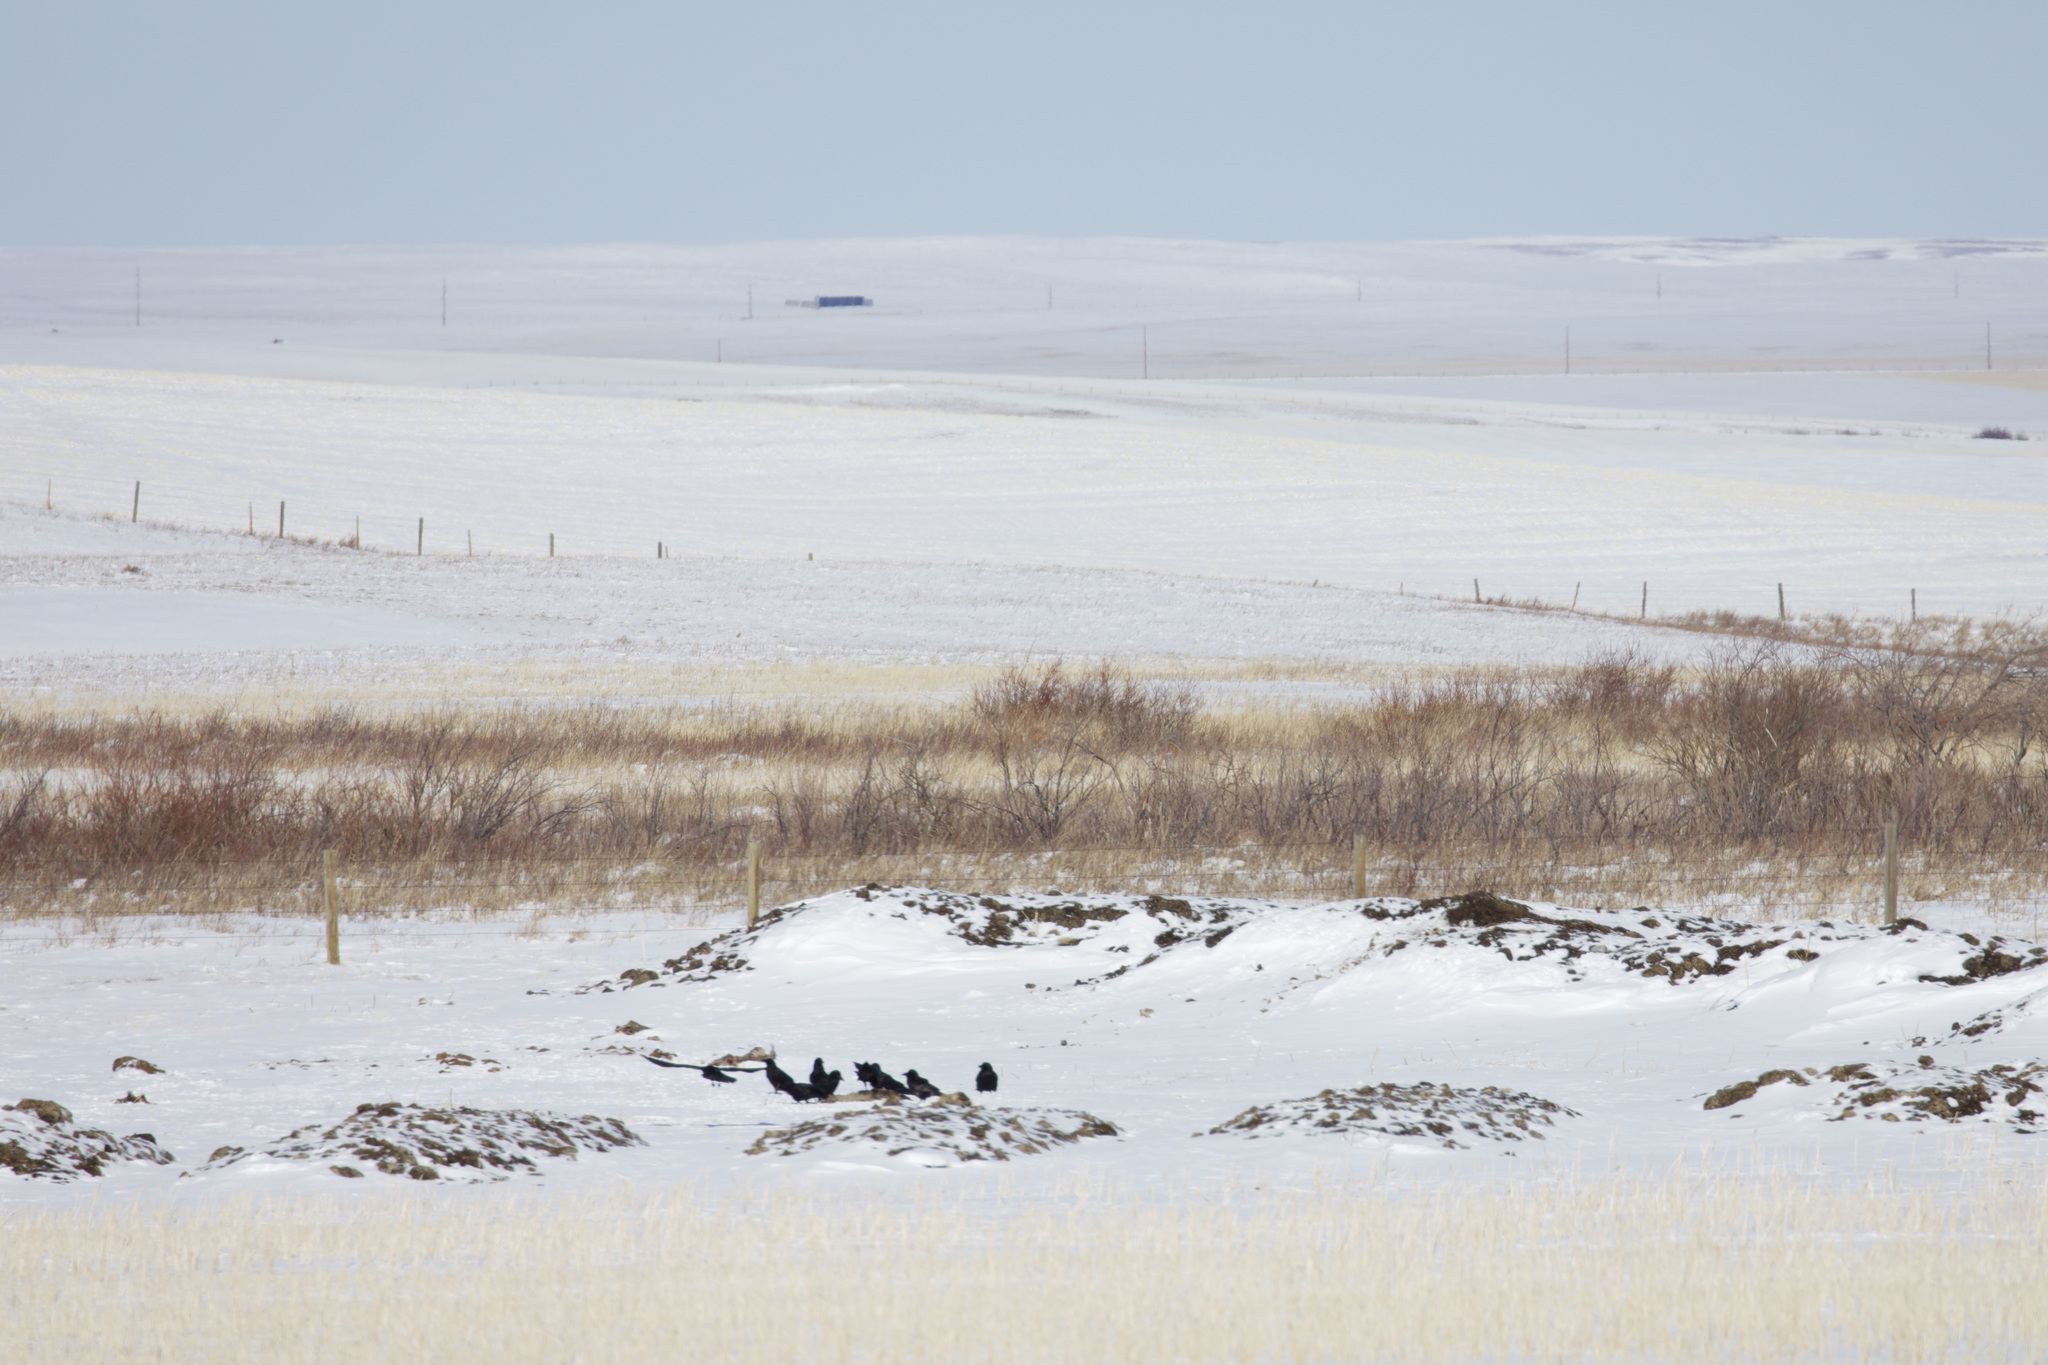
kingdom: Animalia
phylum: Chordata
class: Aves
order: Passeriformes
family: Corvidae
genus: Corvus
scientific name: Corvus brachyrhynchos
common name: American crow
